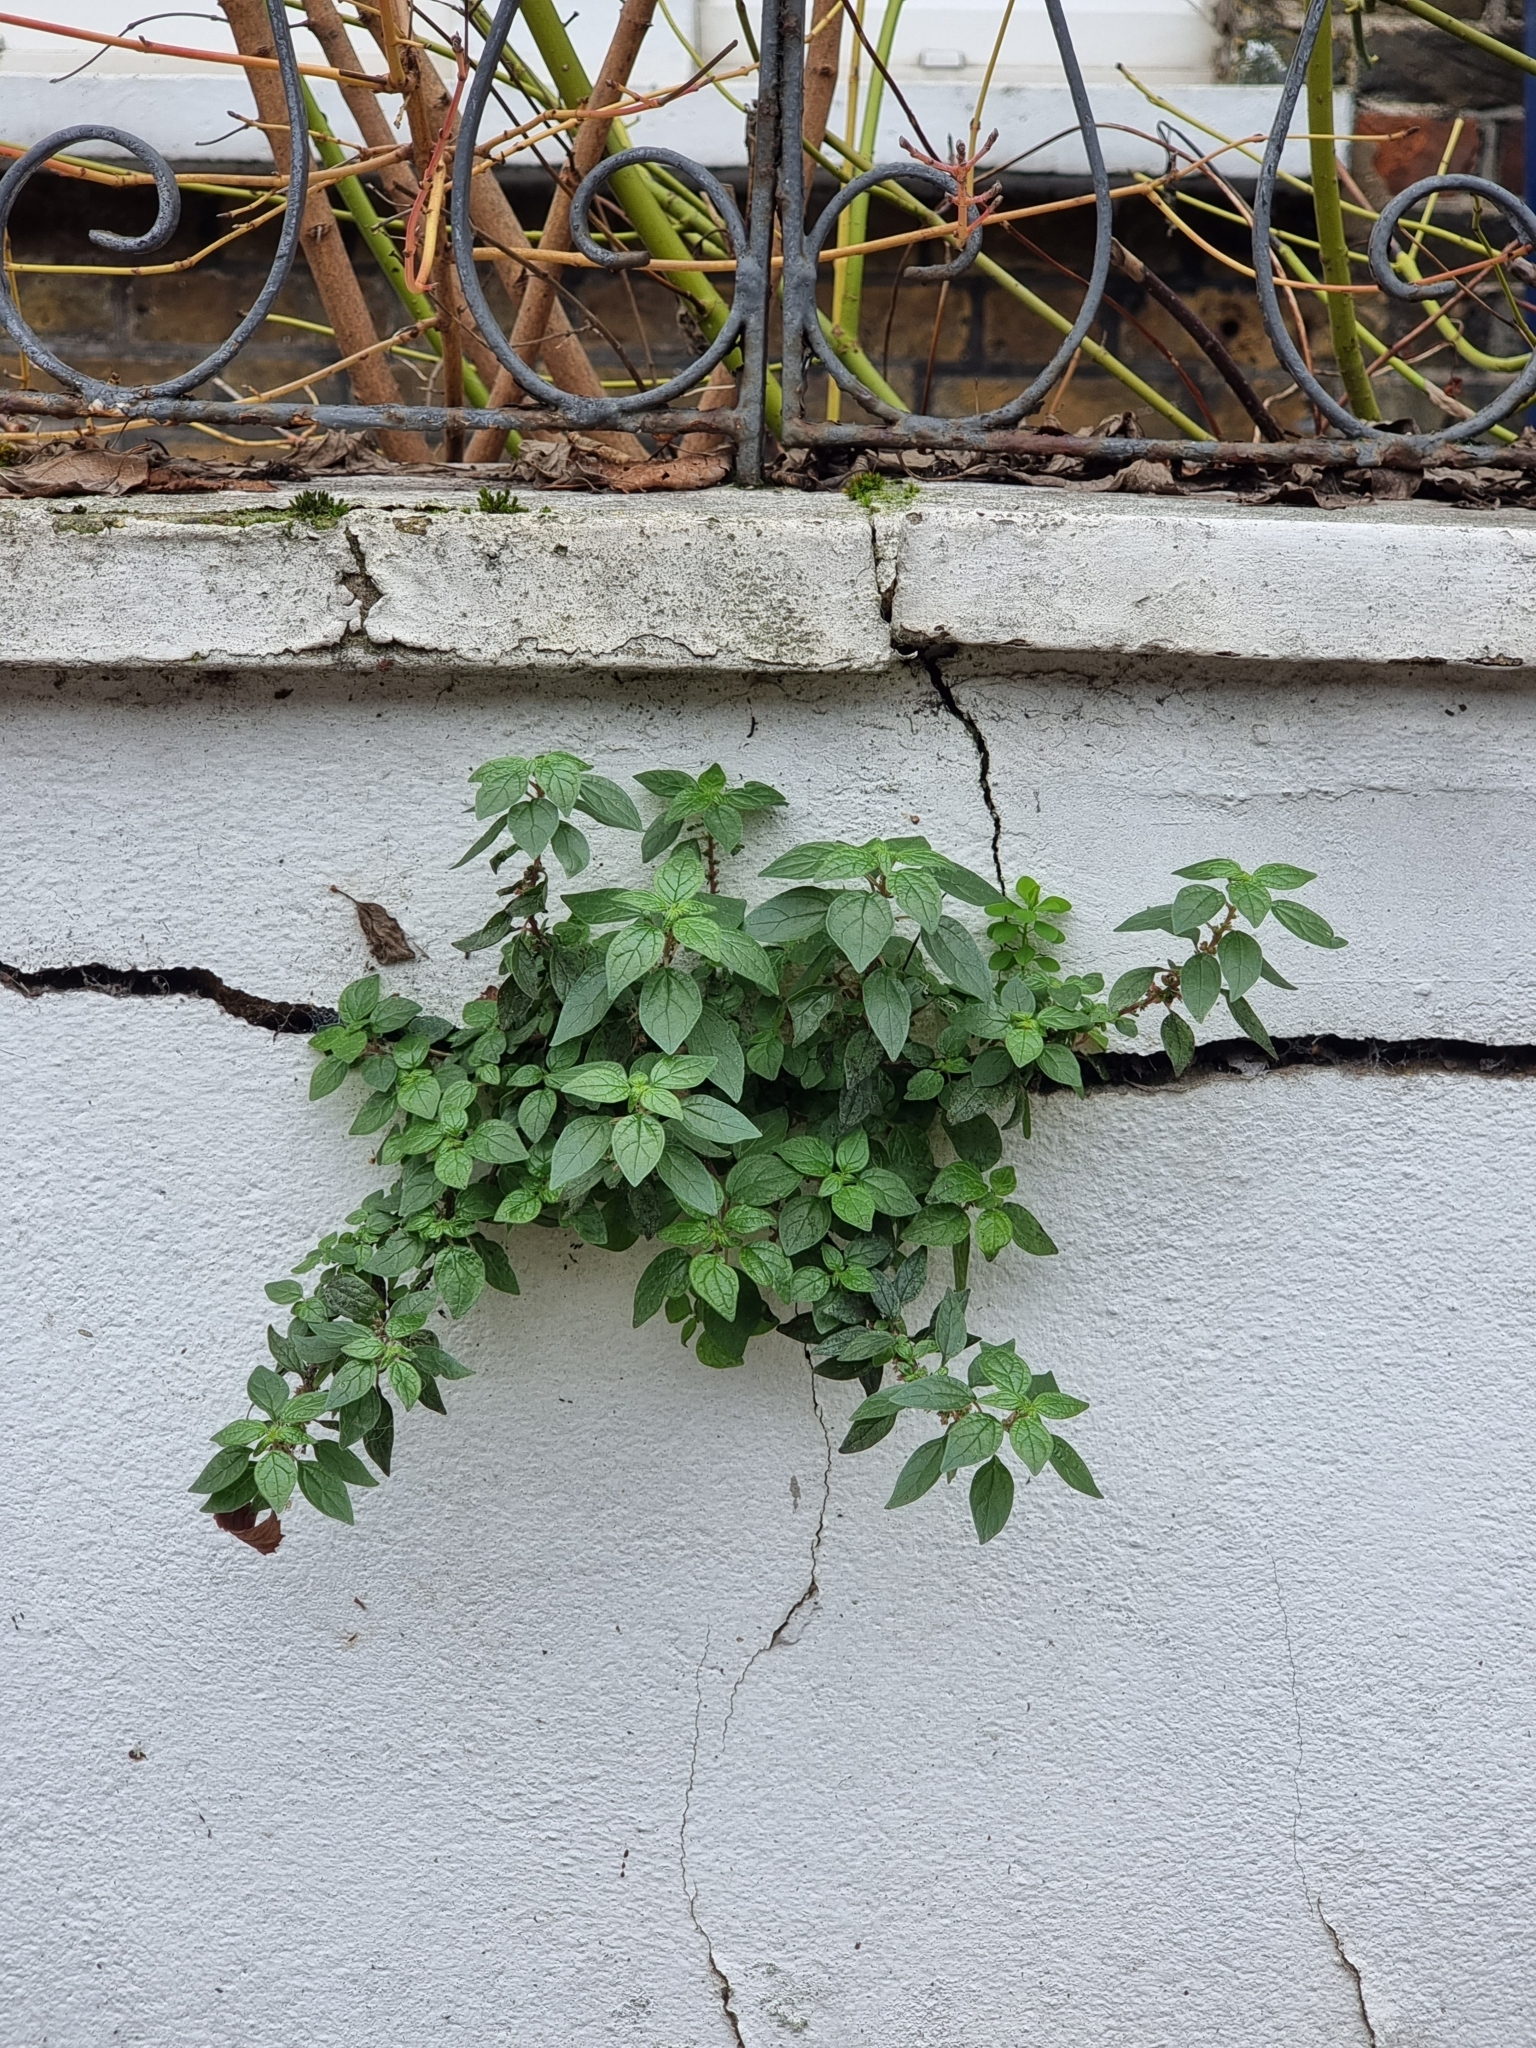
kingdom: Plantae
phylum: Tracheophyta
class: Magnoliopsida
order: Rosales
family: Urticaceae
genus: Parietaria
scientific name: Parietaria judaica
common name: Pellitory-of-the-wall
